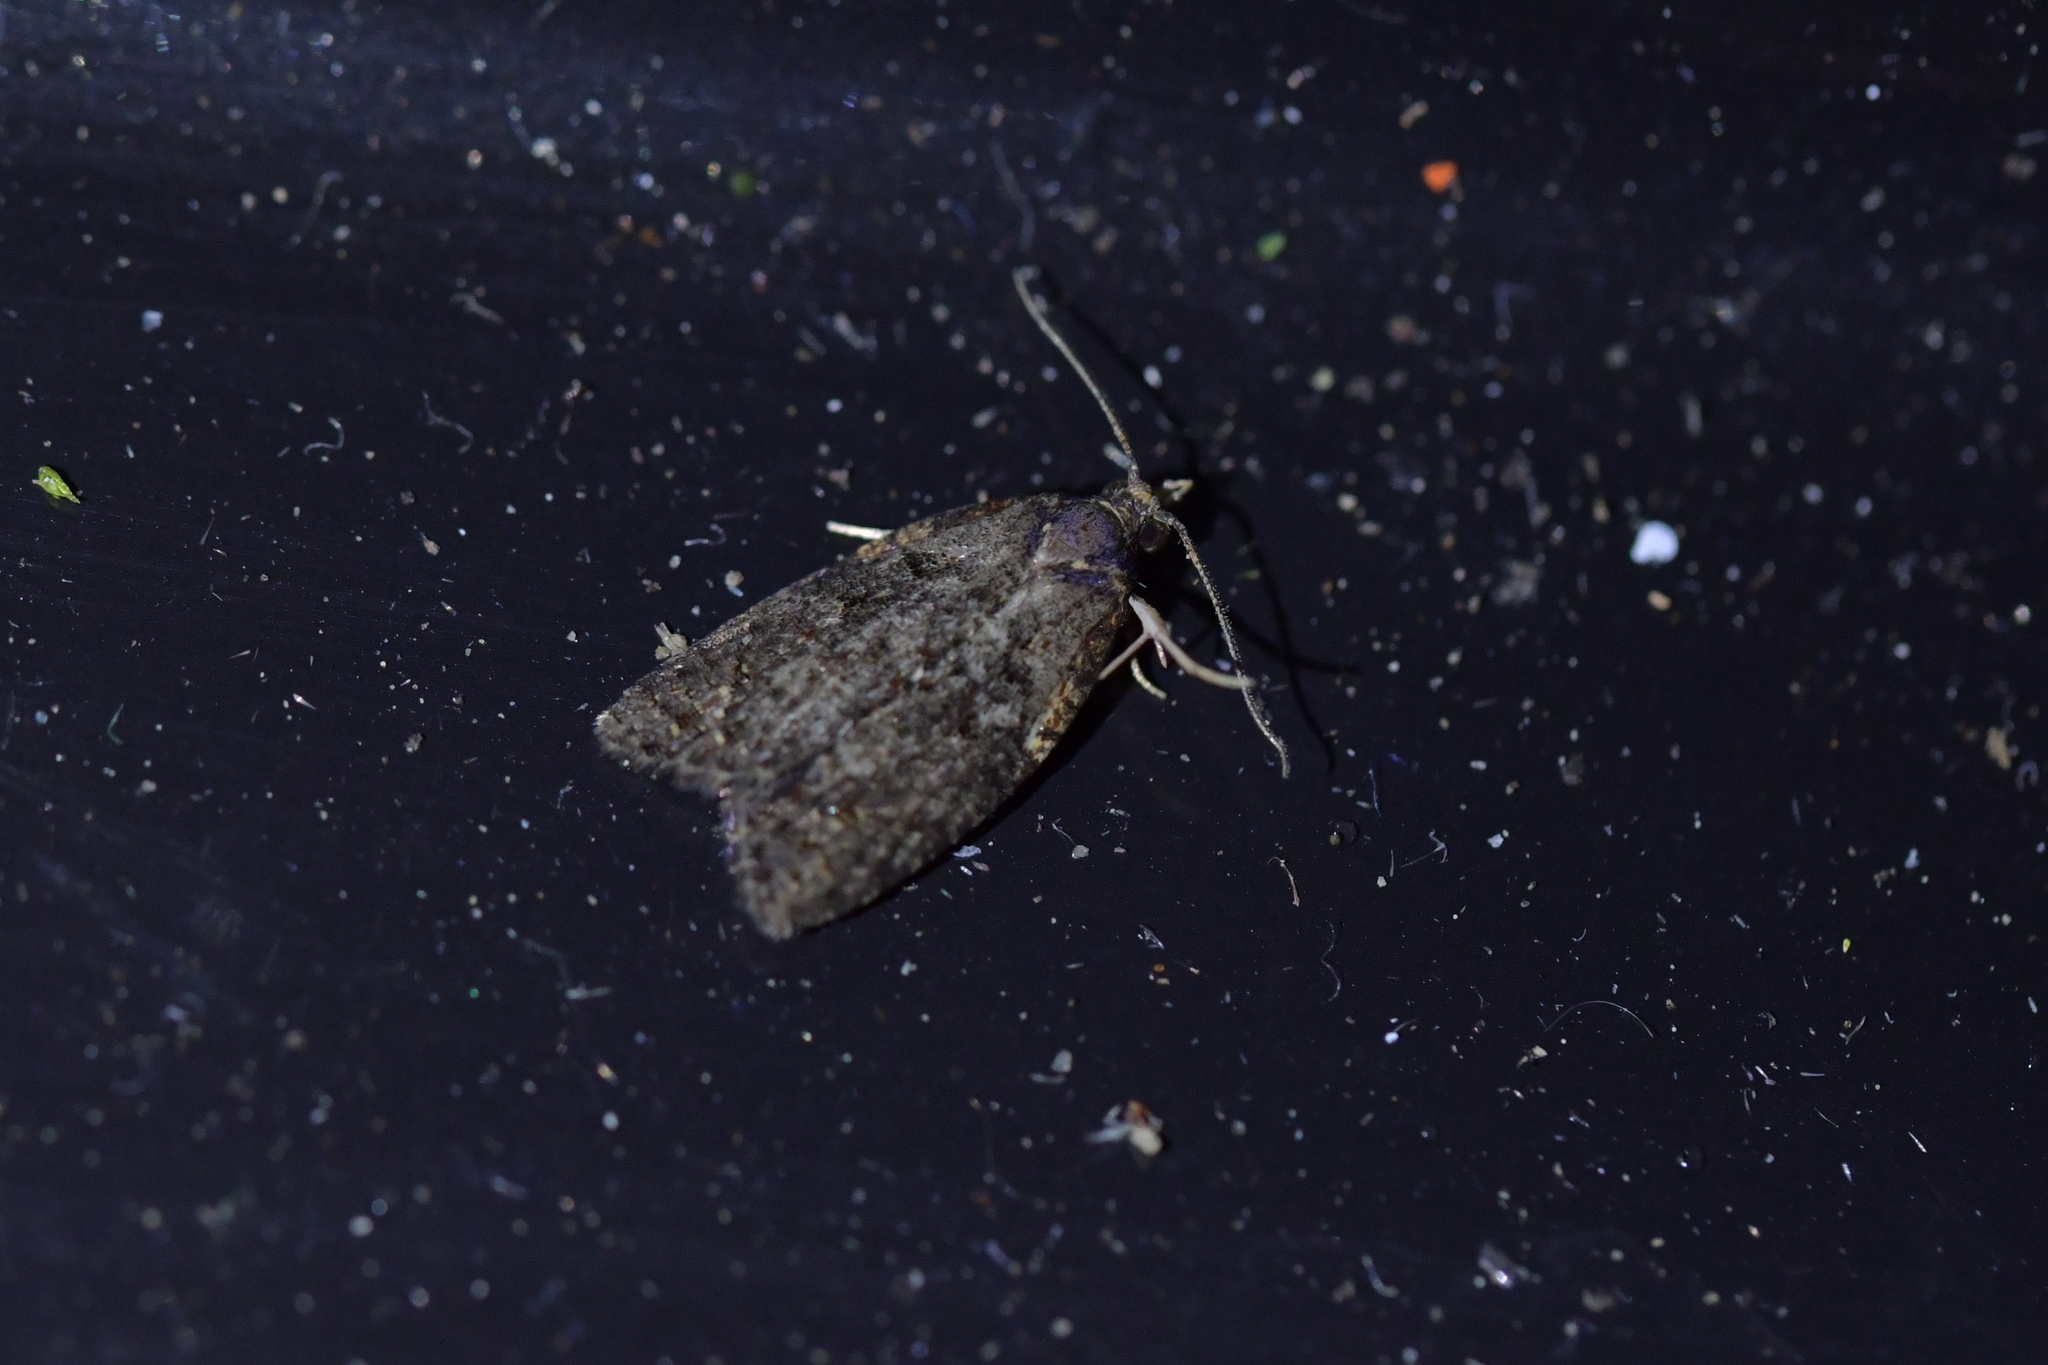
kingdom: Animalia
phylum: Arthropoda
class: Insecta
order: Lepidoptera
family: Tortricidae
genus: Capua
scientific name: Capua intractana
